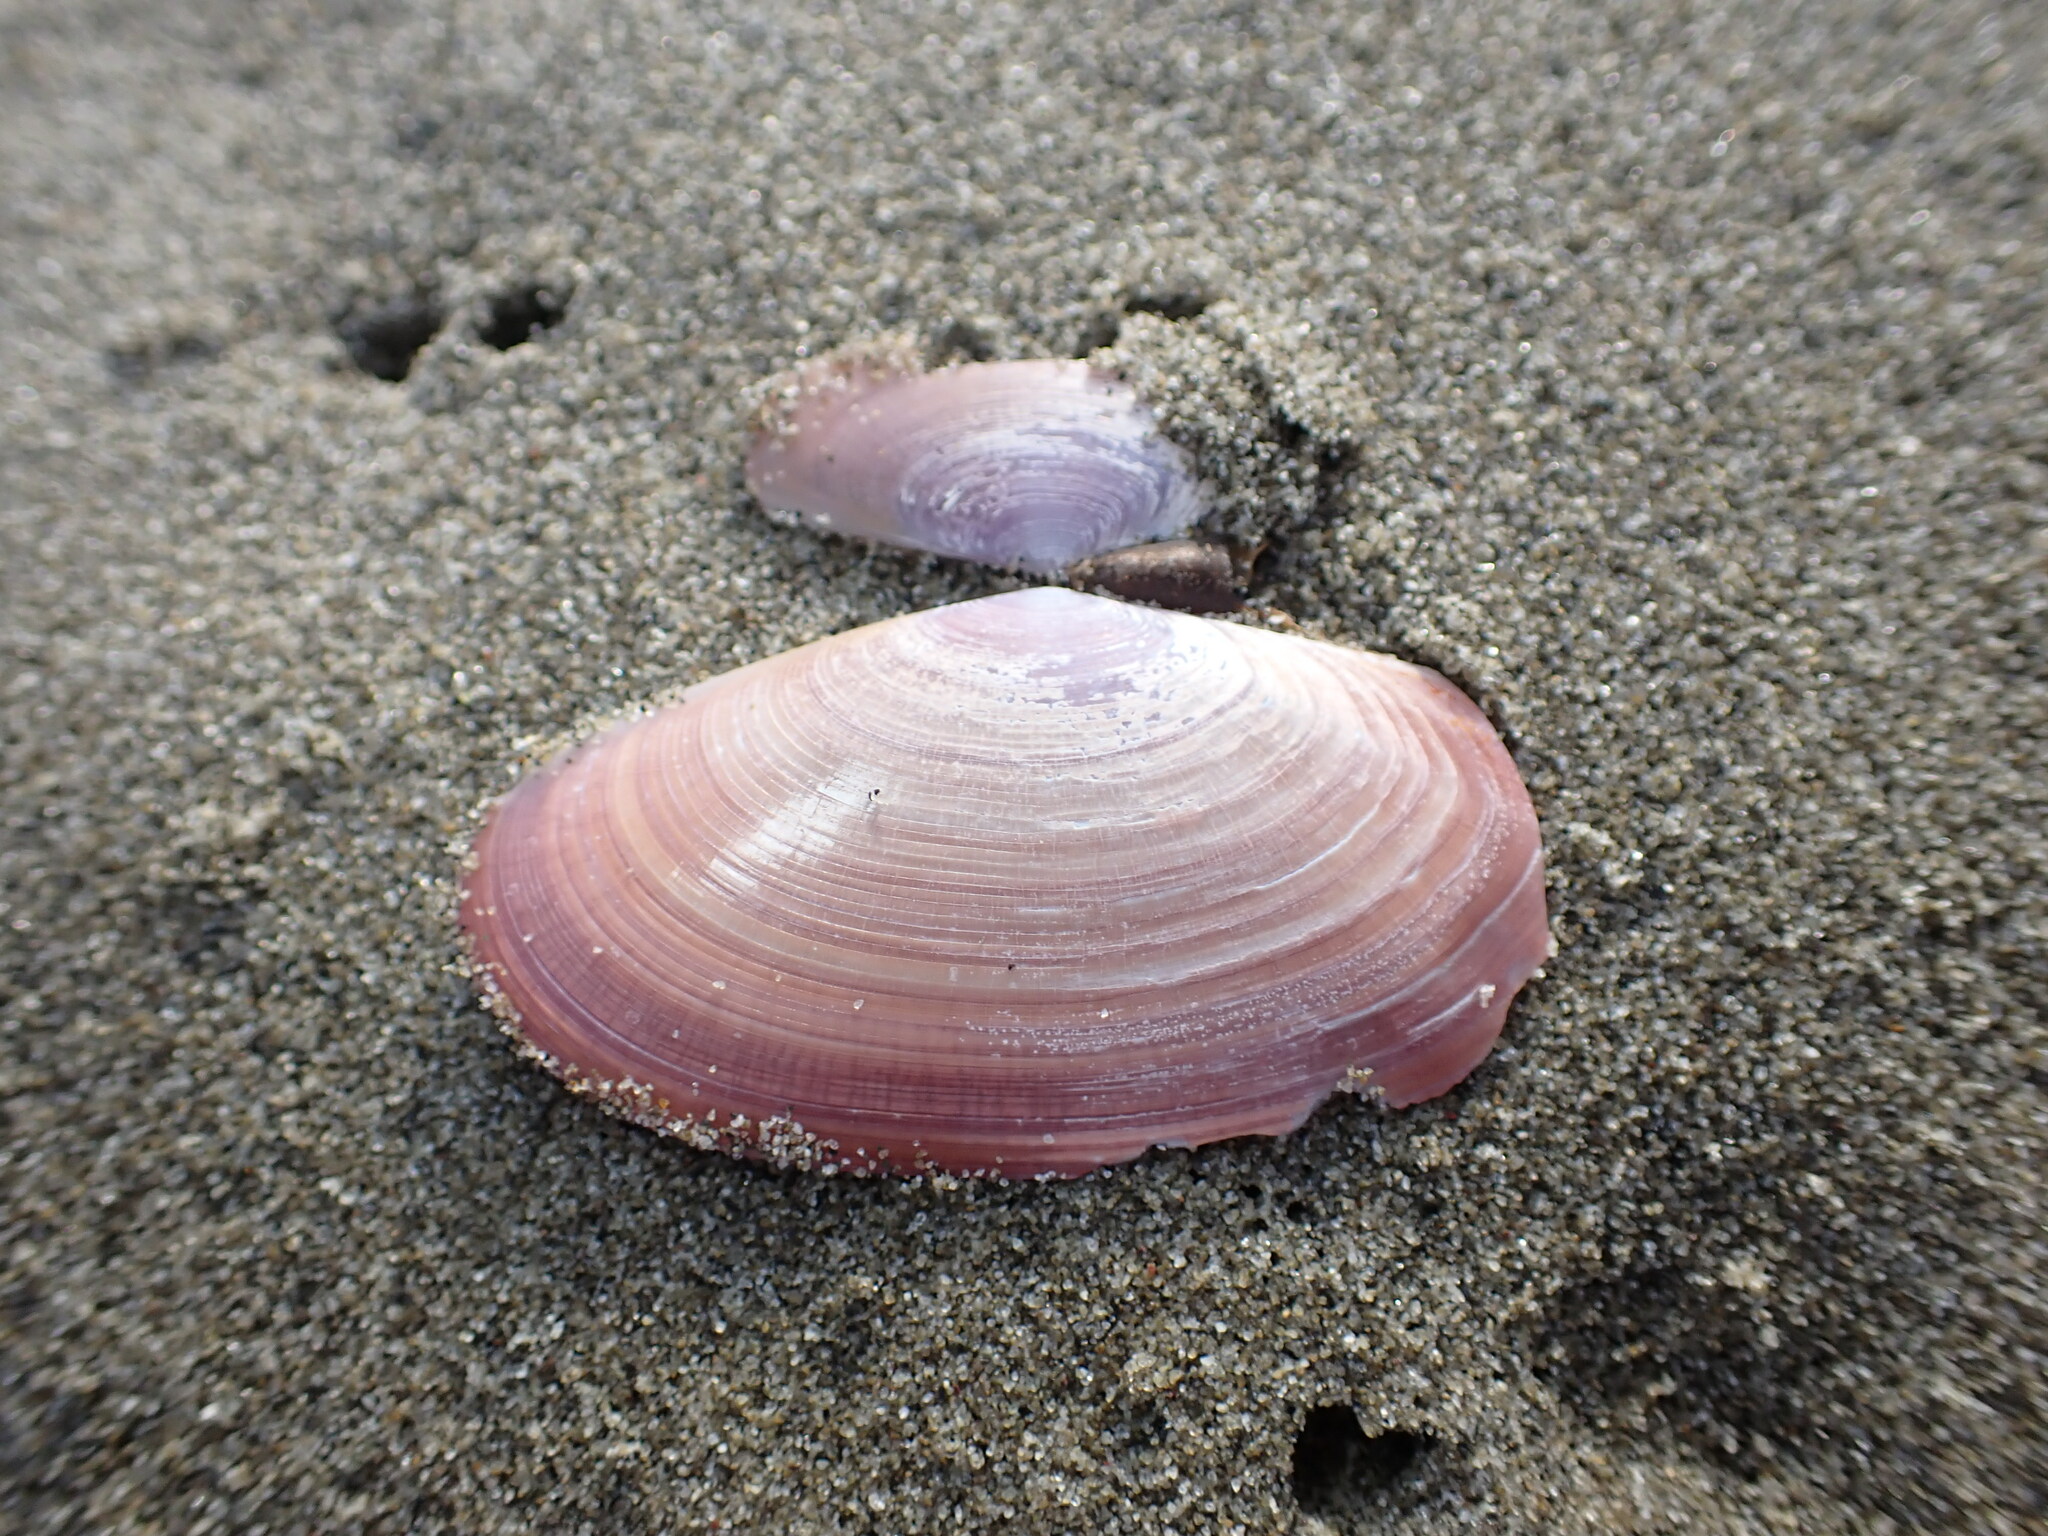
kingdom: Animalia
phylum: Mollusca
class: Bivalvia
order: Cardiida
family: Psammobiidae
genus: Gari
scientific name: Gari lineolata
